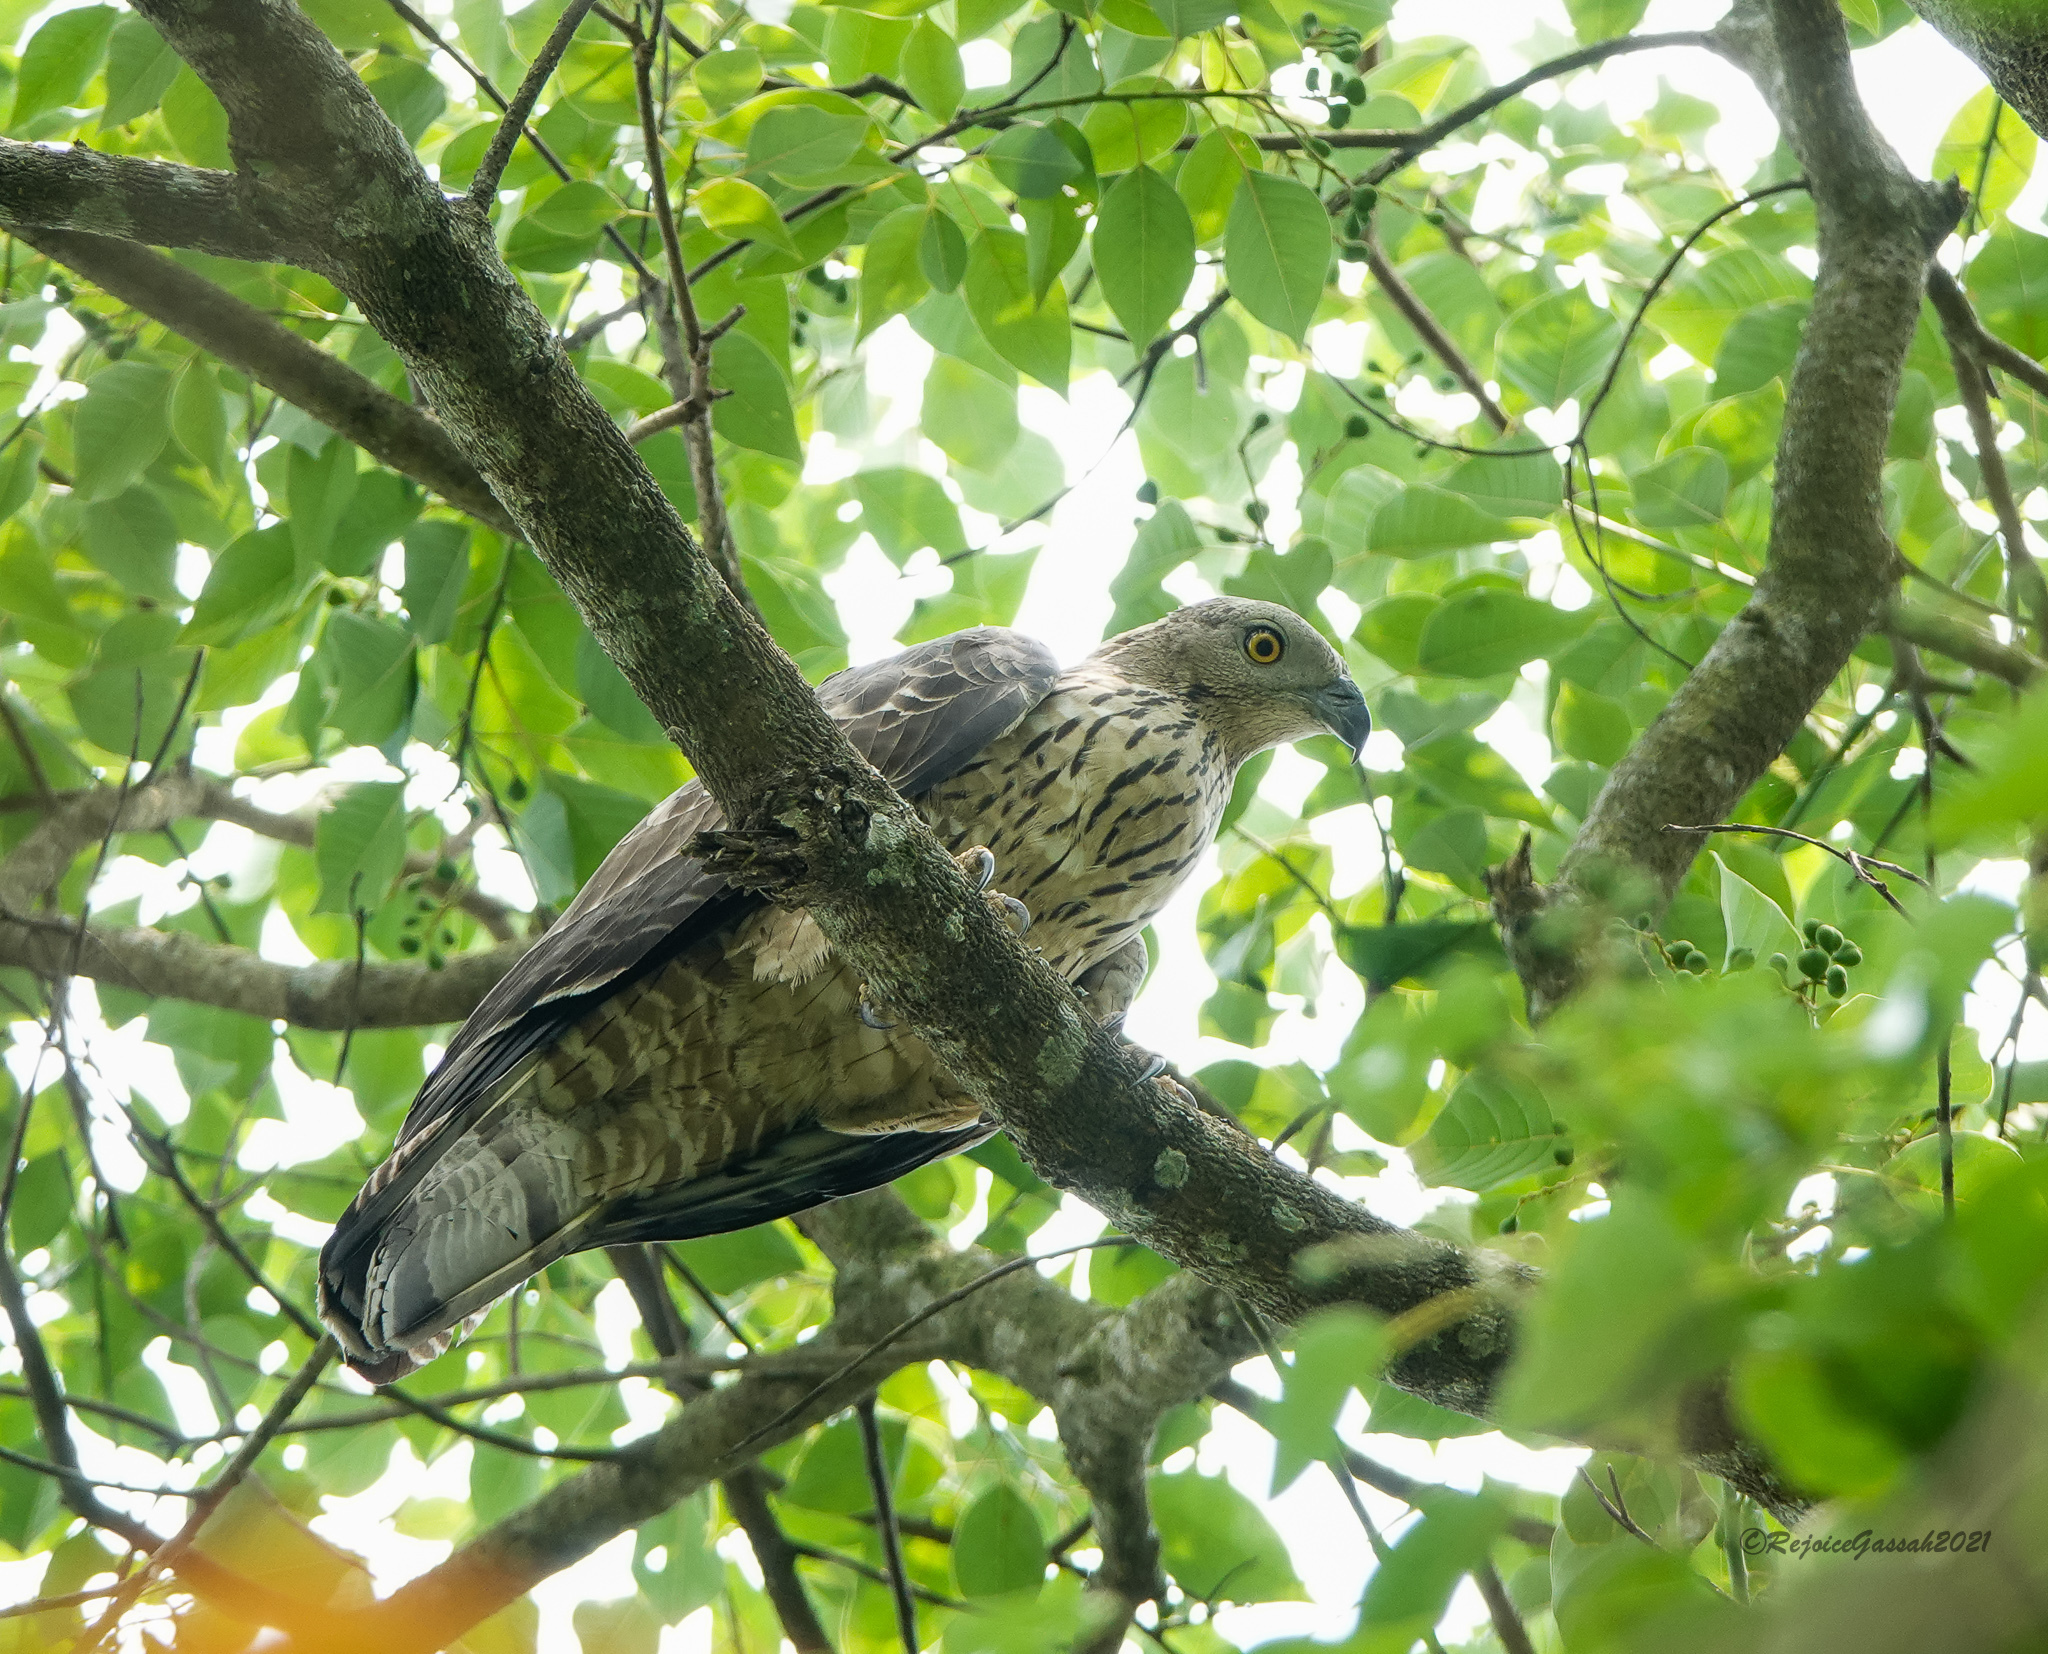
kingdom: Animalia
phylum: Chordata
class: Aves
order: Accipitriformes
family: Accipitridae
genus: Pernis
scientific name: Pernis ptilorhynchus
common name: Crested honey buzzard
